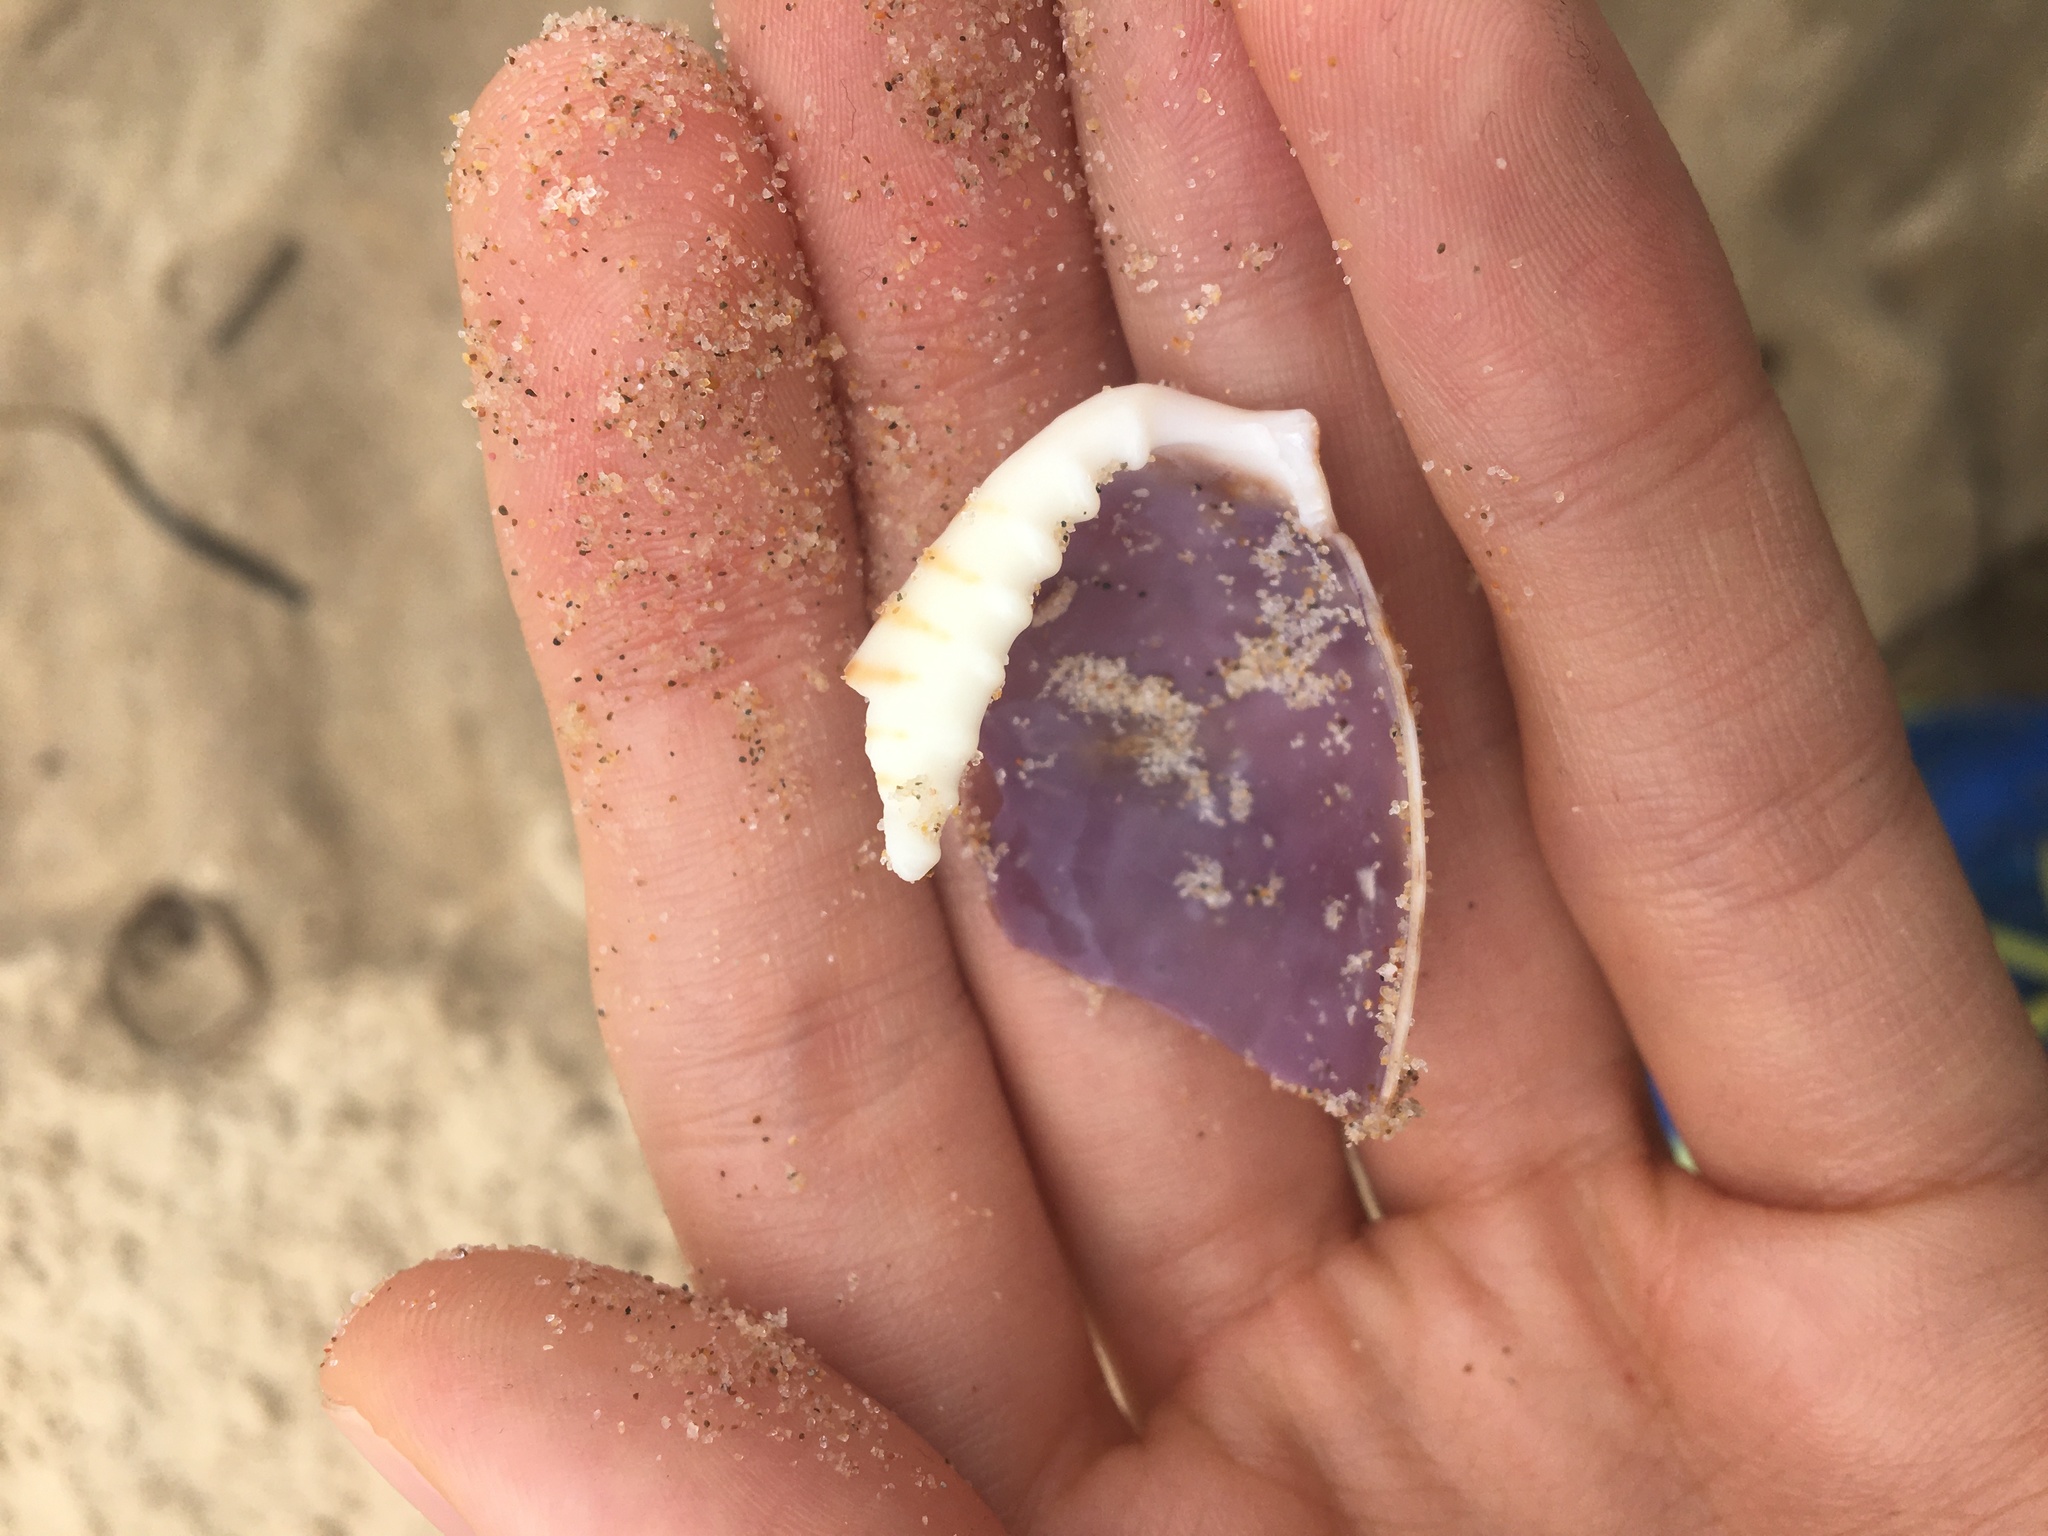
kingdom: Animalia
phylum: Mollusca
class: Gastropoda
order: Littorinimorpha
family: Cypraeidae
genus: Naria
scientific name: Naria erosa
